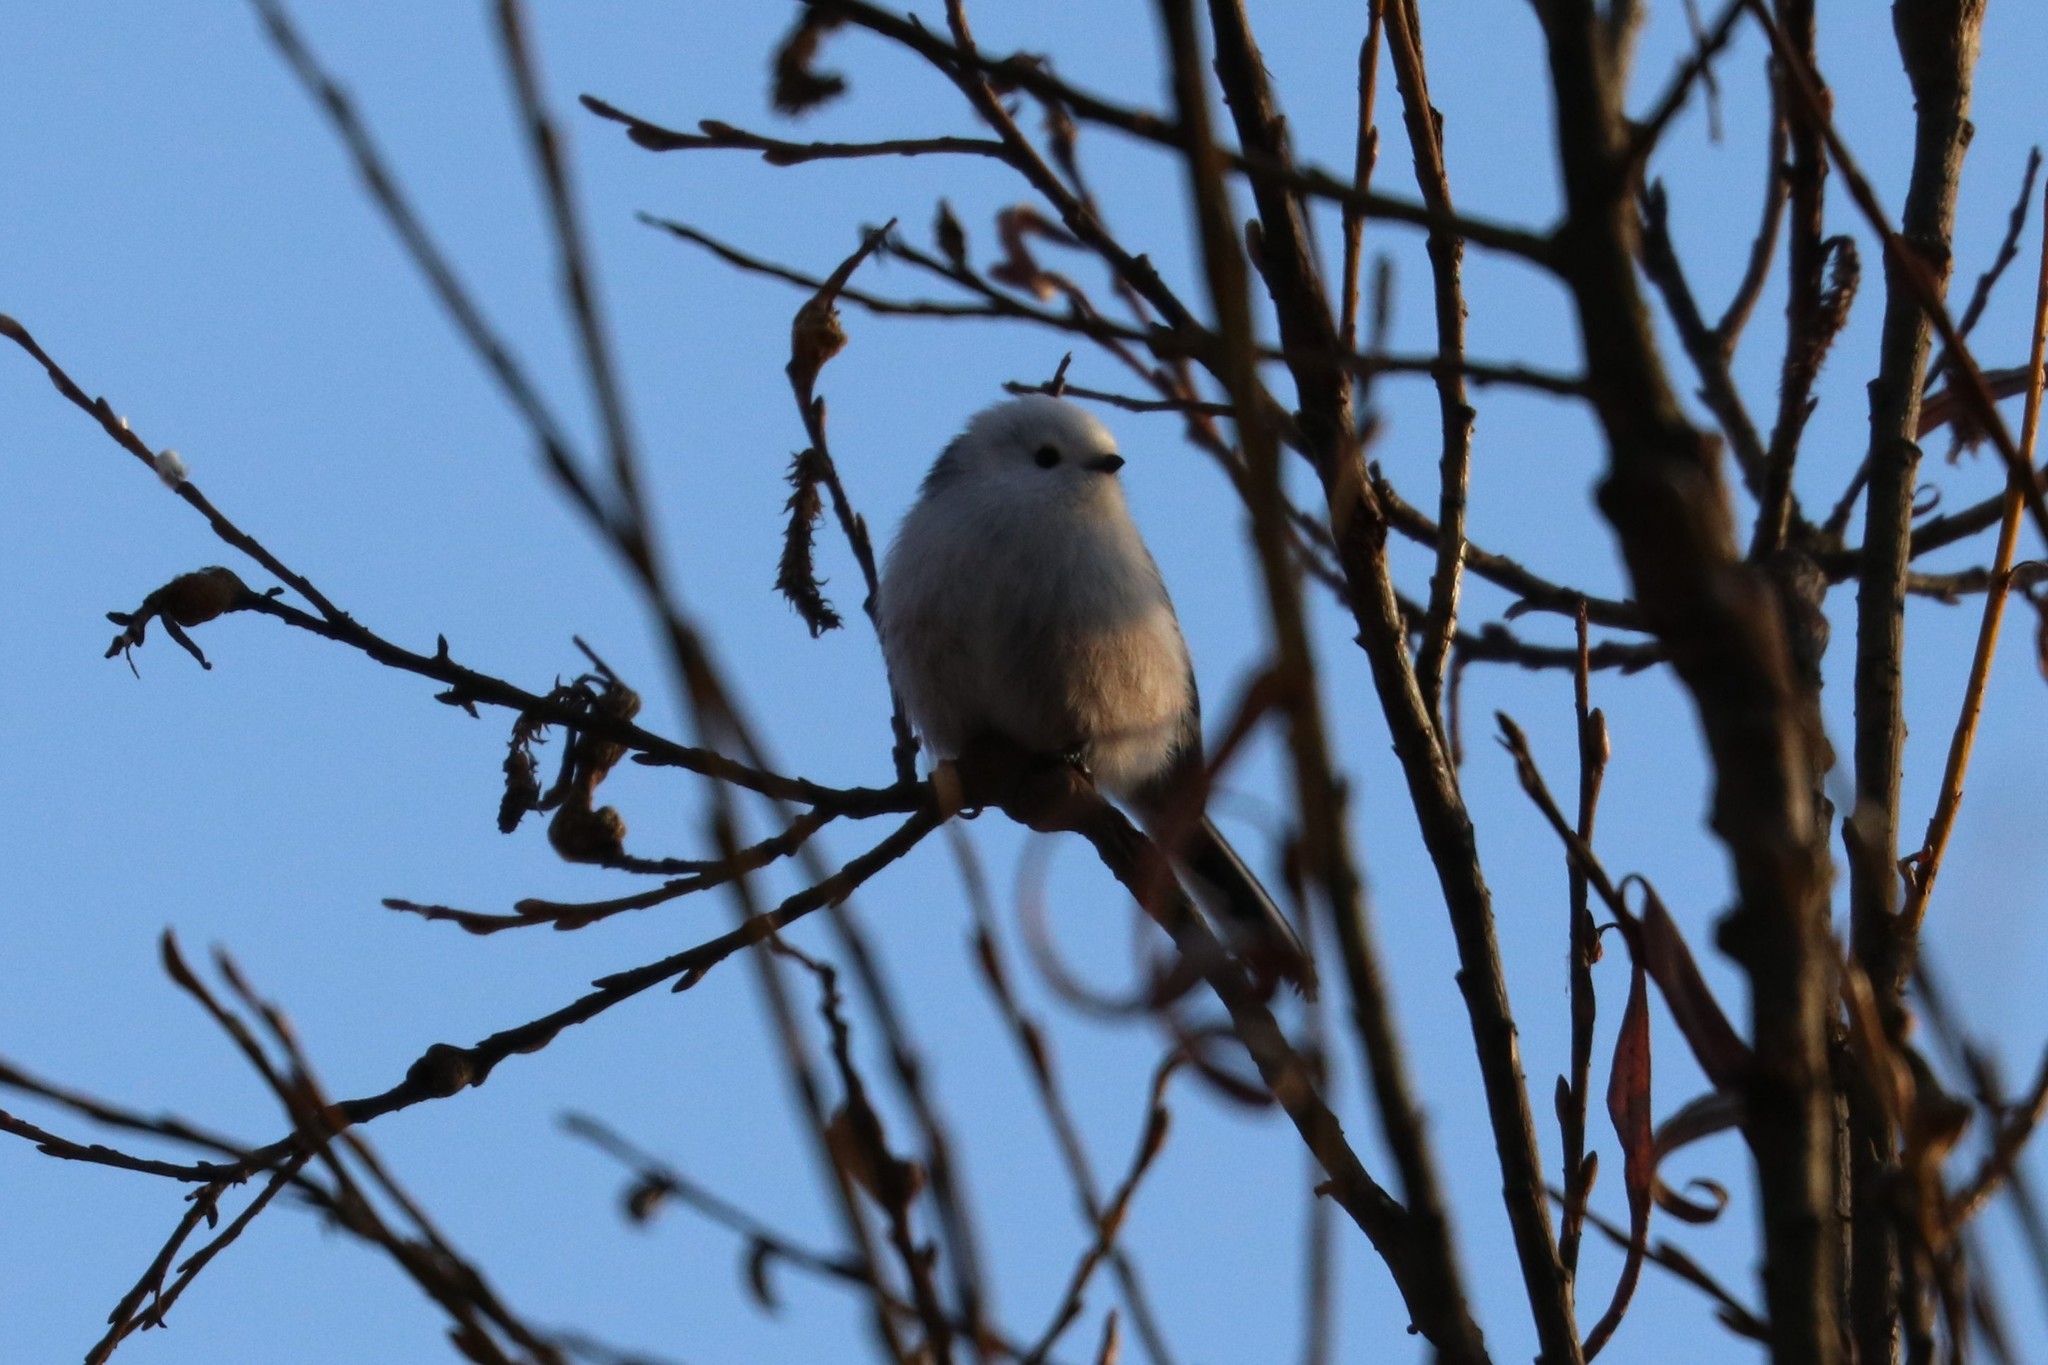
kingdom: Animalia
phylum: Chordata
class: Aves
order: Passeriformes
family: Aegithalidae
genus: Aegithalos
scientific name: Aegithalos caudatus
